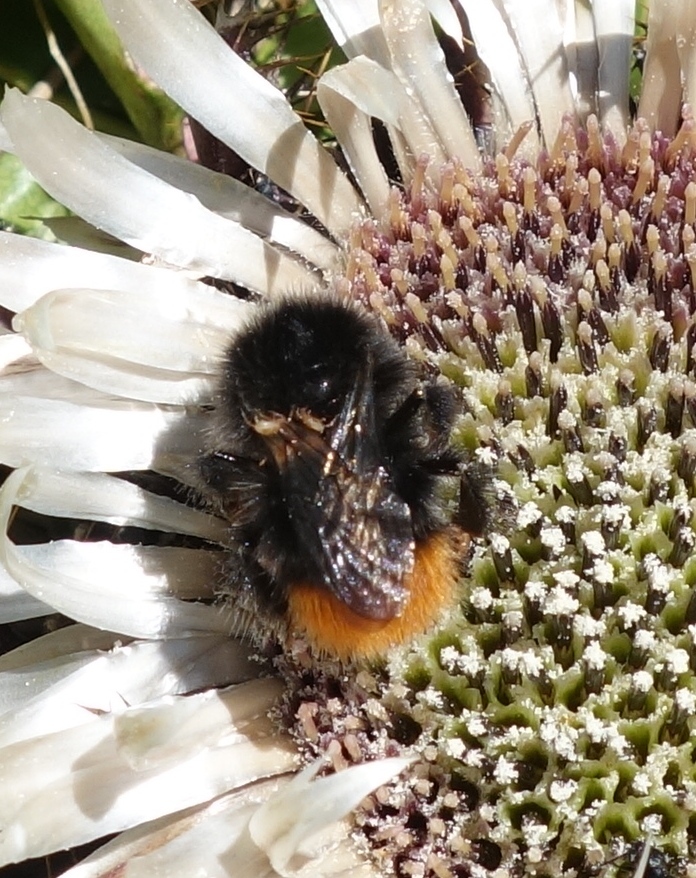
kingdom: Animalia
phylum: Arthropoda
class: Insecta
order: Hymenoptera
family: Apidae
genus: Bombus
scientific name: Bombus wurflenii
